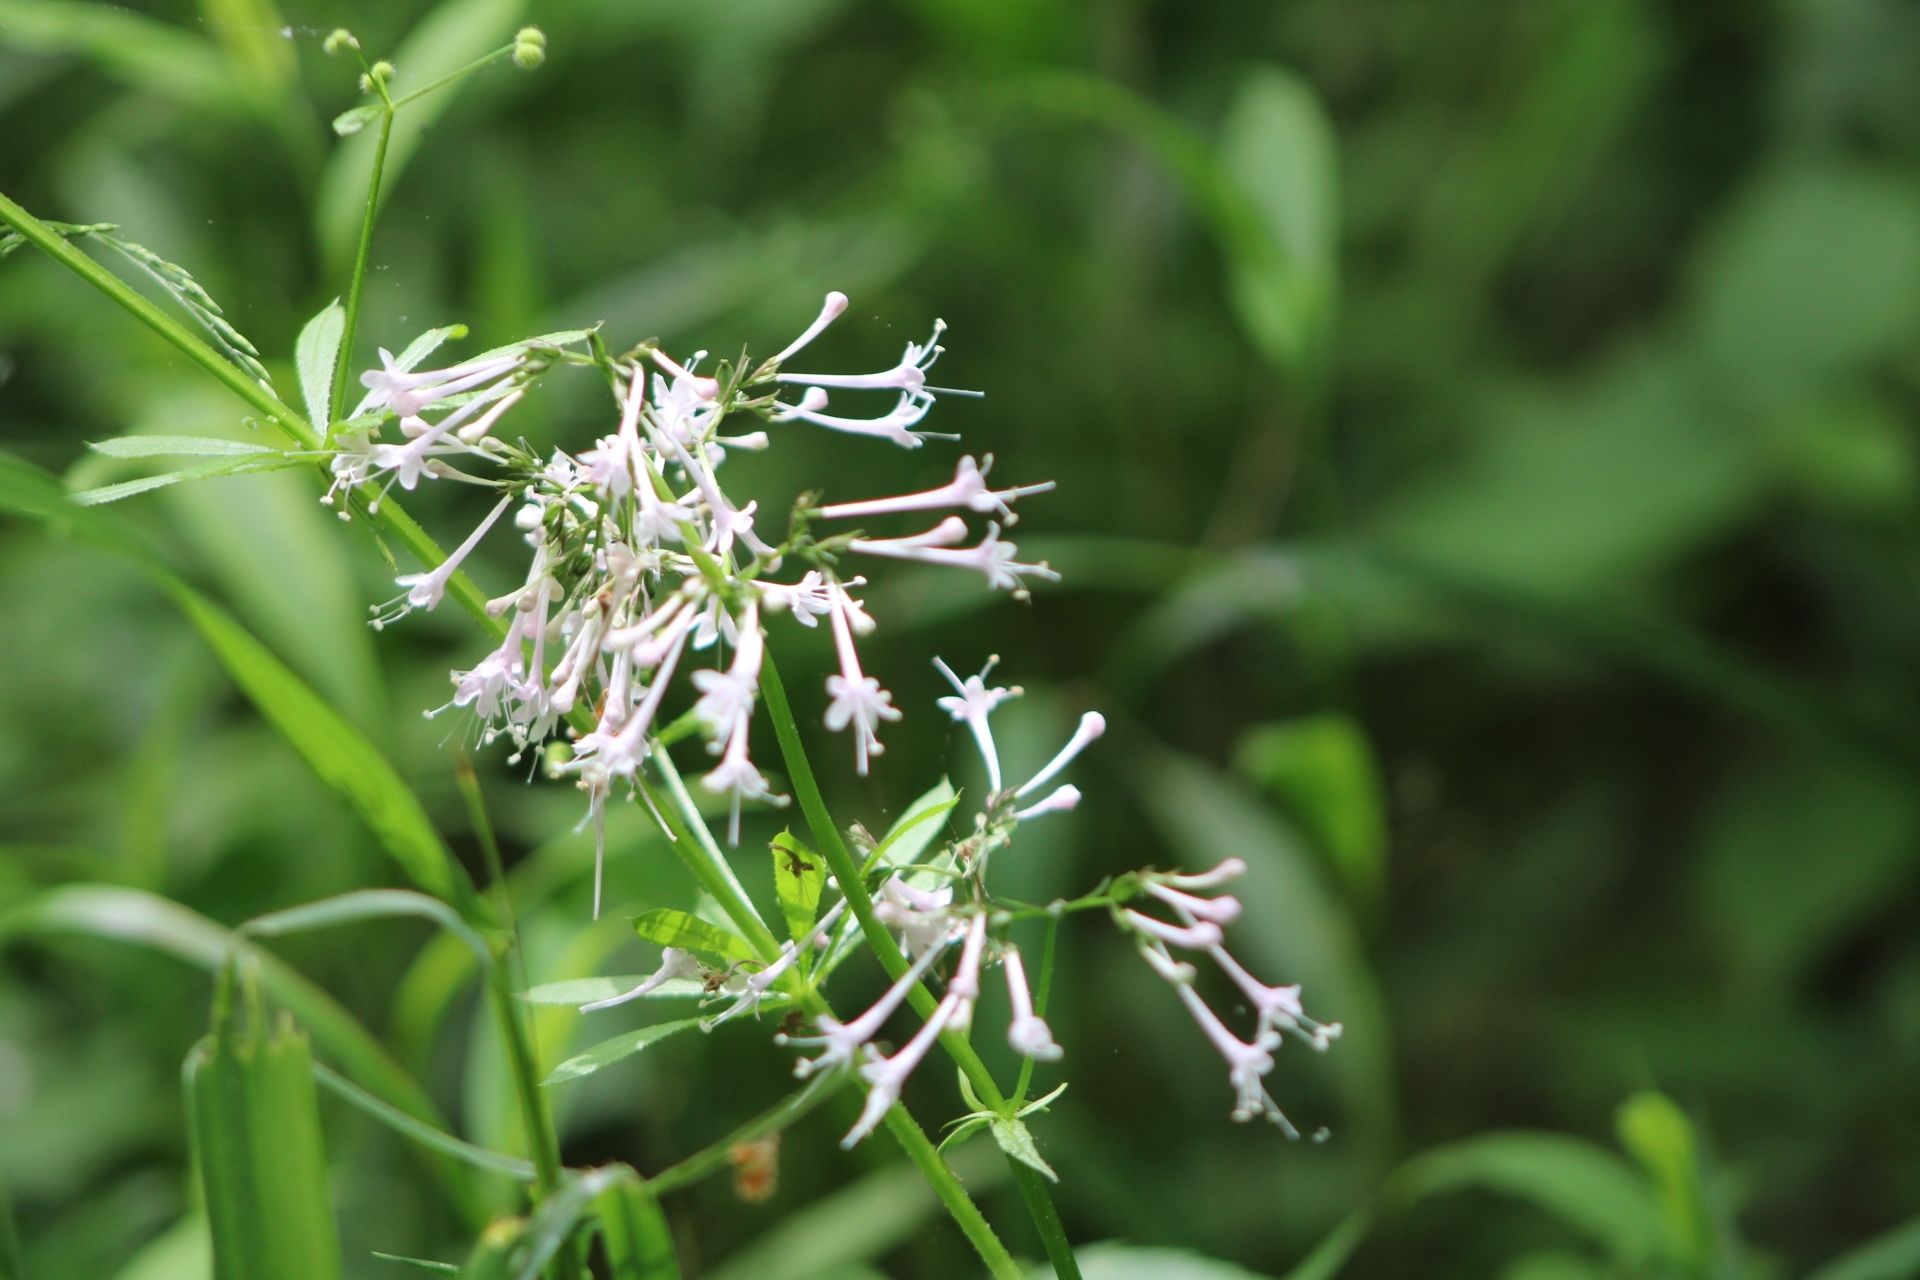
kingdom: Plantae
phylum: Tracheophyta
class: Magnoliopsida
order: Dipsacales
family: Caprifoliaceae
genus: Valeriana
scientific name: Valeriana pauciflora
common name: Long-tube valeriana
